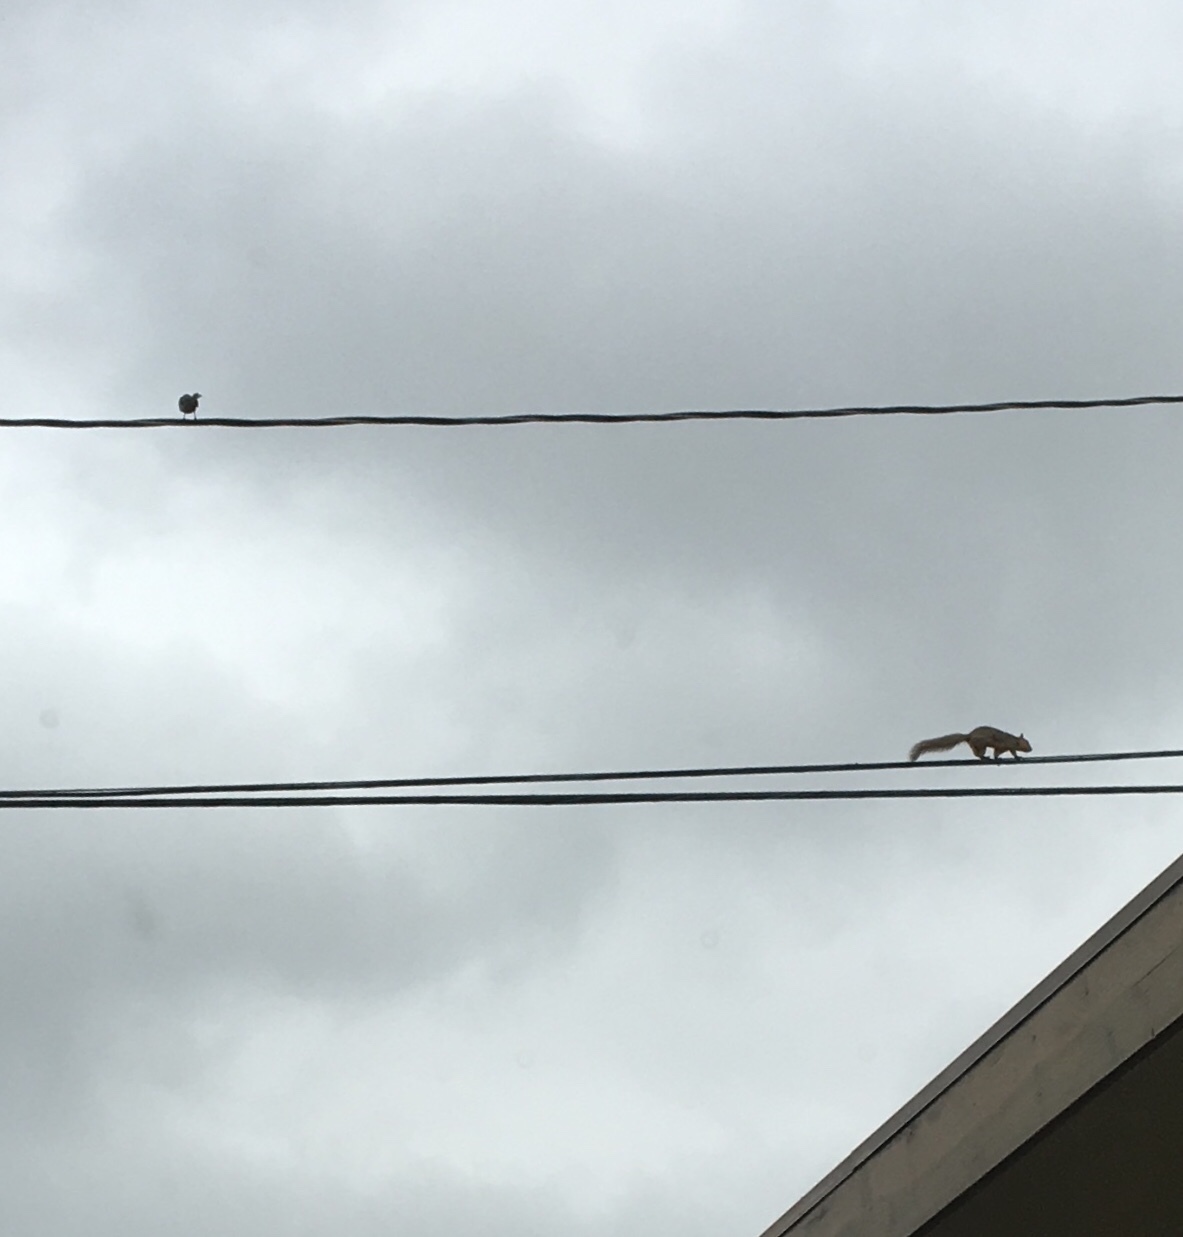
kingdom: Animalia
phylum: Chordata
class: Mammalia
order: Rodentia
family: Sciuridae
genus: Sciurus
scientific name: Sciurus niger
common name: Fox squirrel
